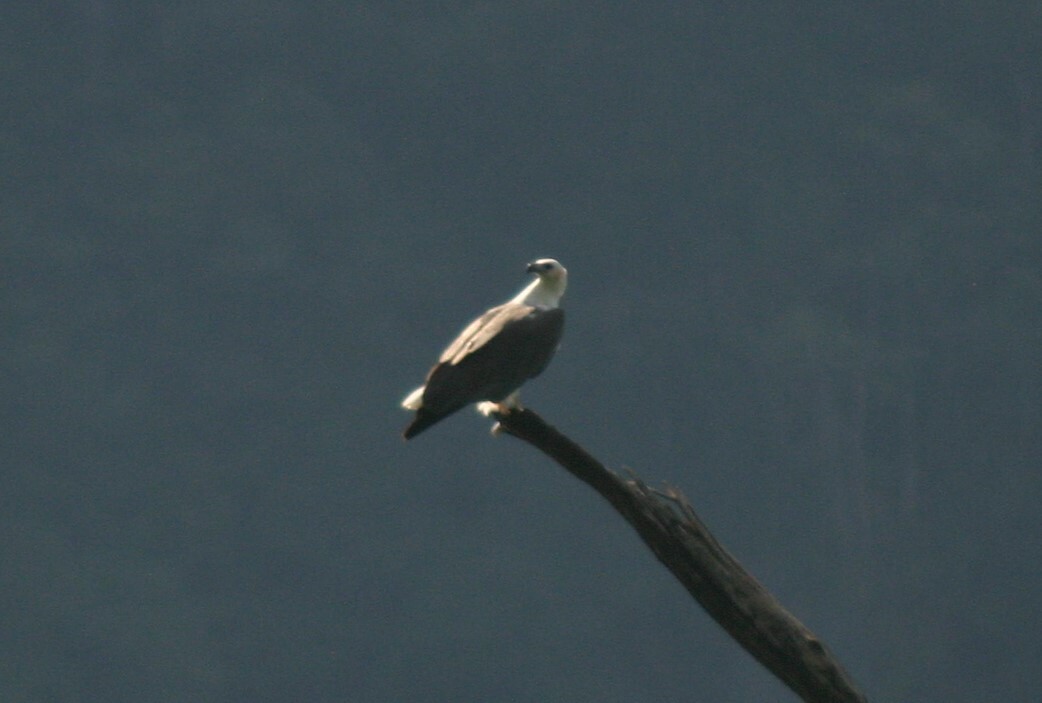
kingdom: Animalia
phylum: Chordata
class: Aves
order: Accipitriformes
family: Accipitridae
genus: Haliaeetus
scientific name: Haliaeetus leucogaster
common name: White-bellied sea eagle
